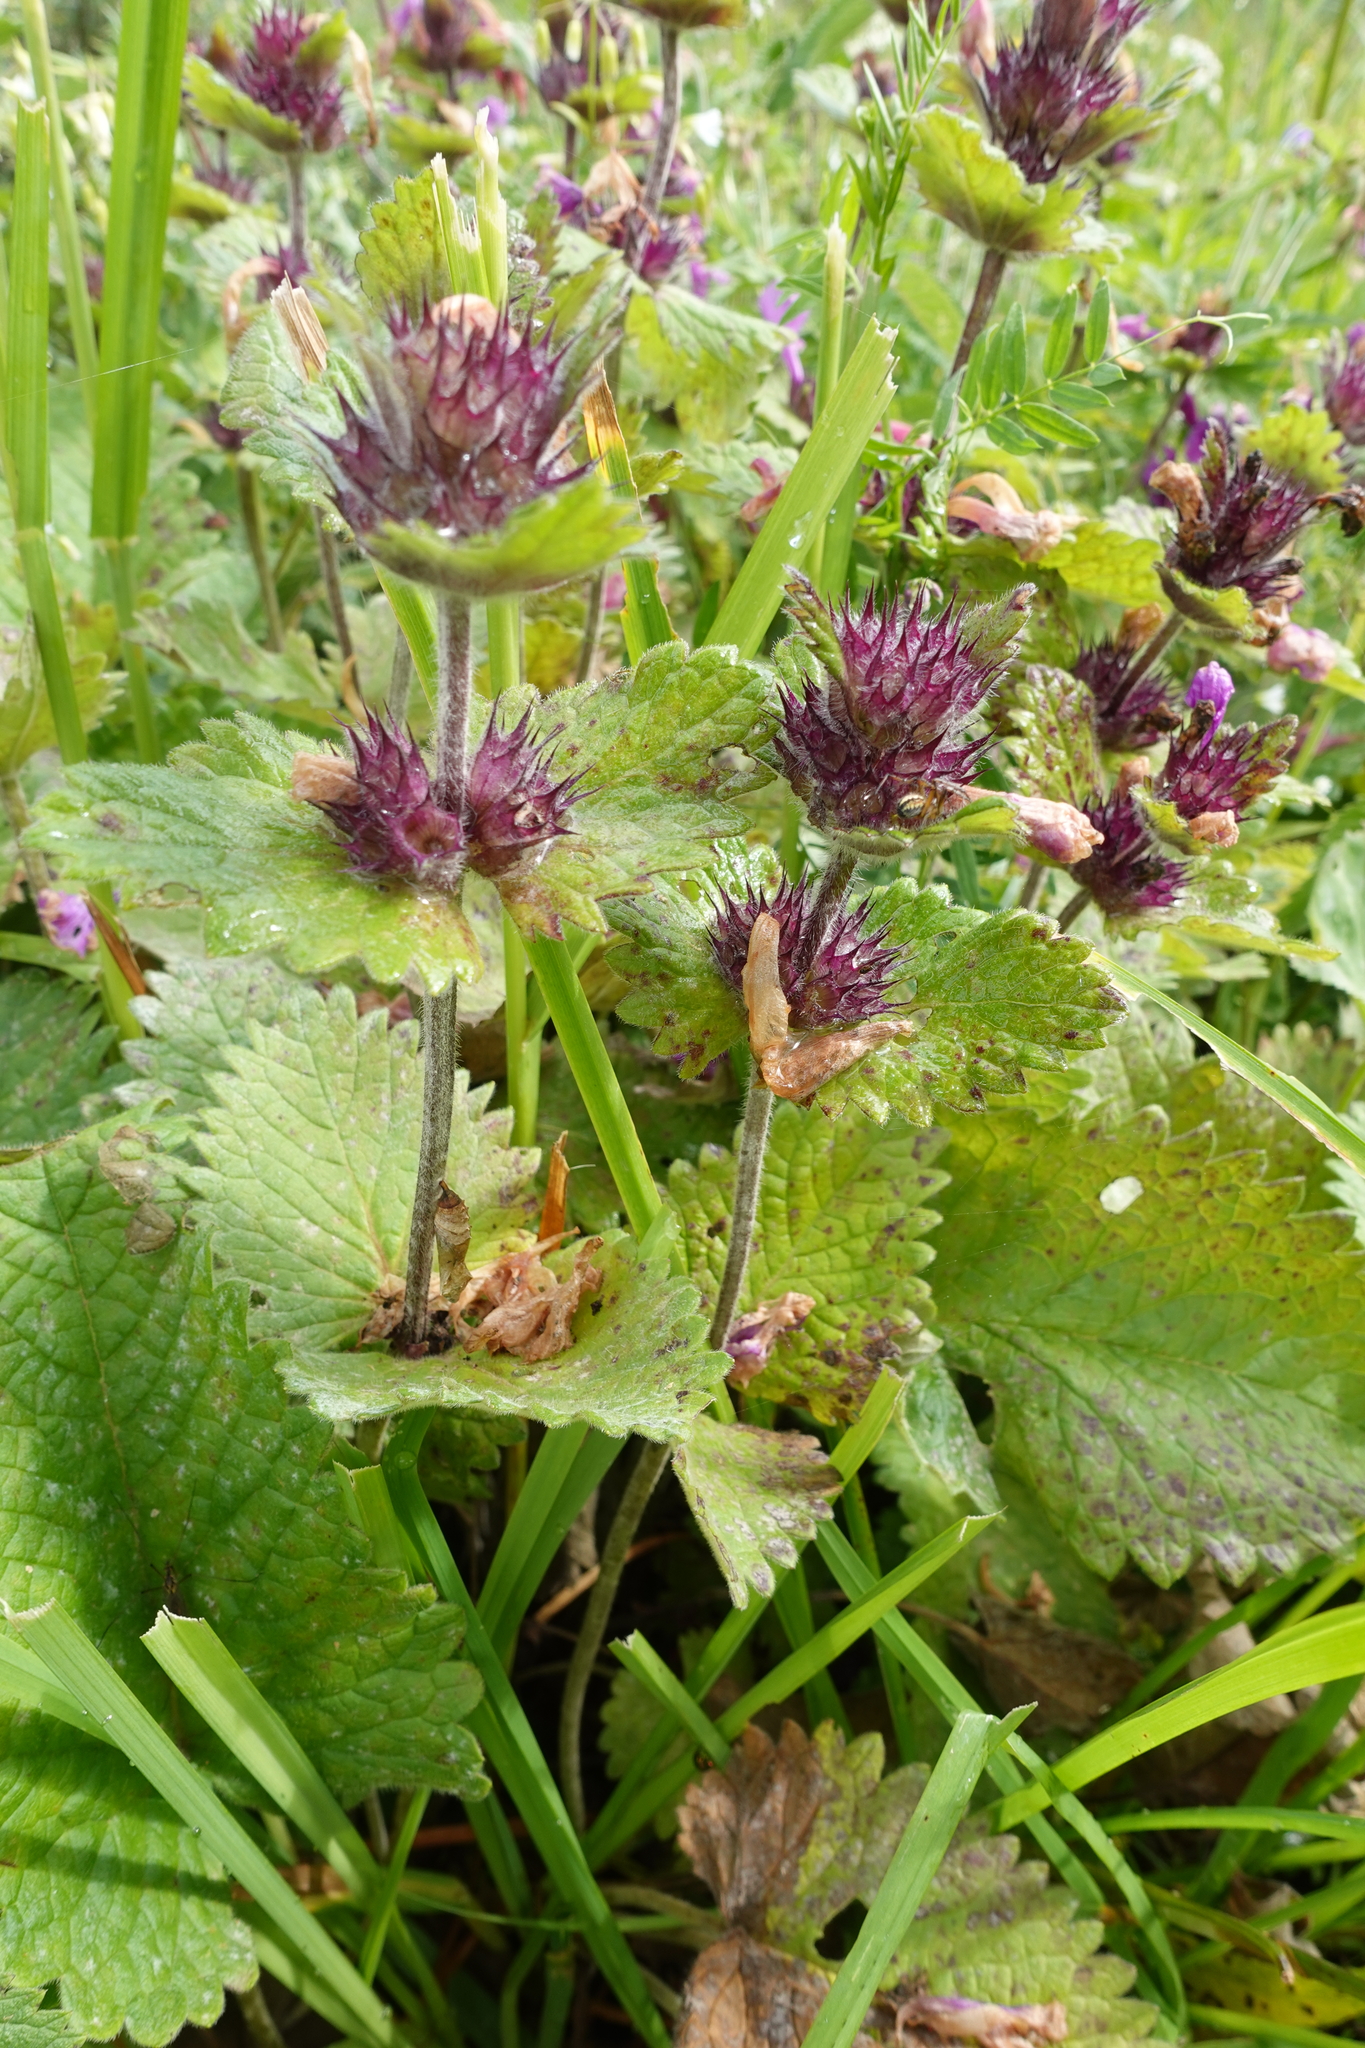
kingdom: Plantae
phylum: Tracheophyta
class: Magnoliopsida
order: Lamiales
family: Lamiaceae
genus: Betonica
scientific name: Betonica macrantha
